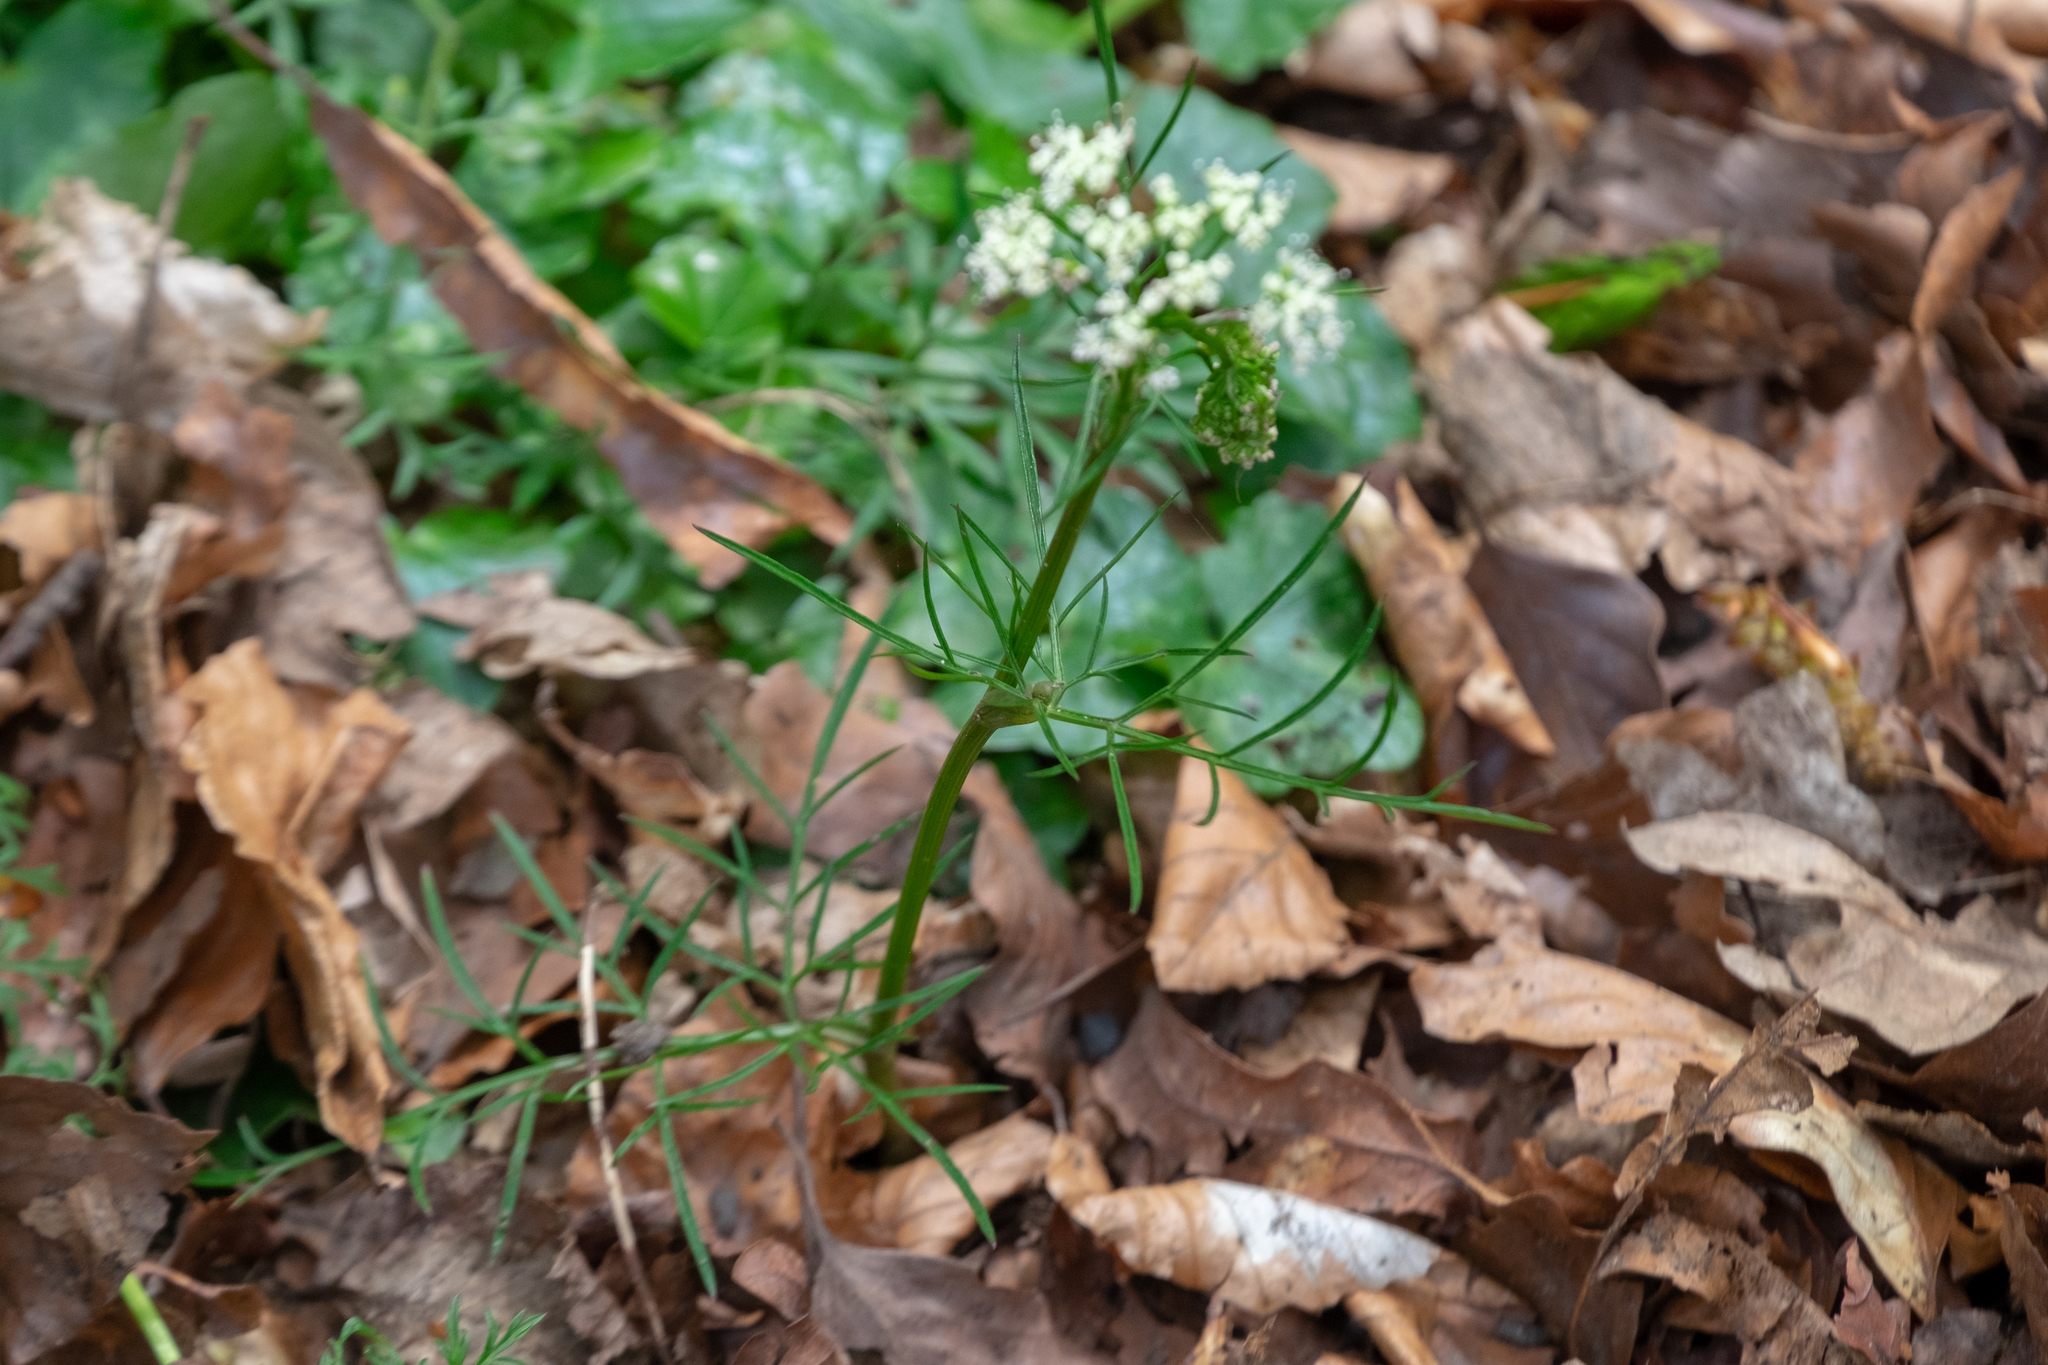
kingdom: Plantae
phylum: Tracheophyta
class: Magnoliopsida
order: Apiales
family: Apiaceae
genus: Conopodium
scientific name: Conopodium majus
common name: Pignut
